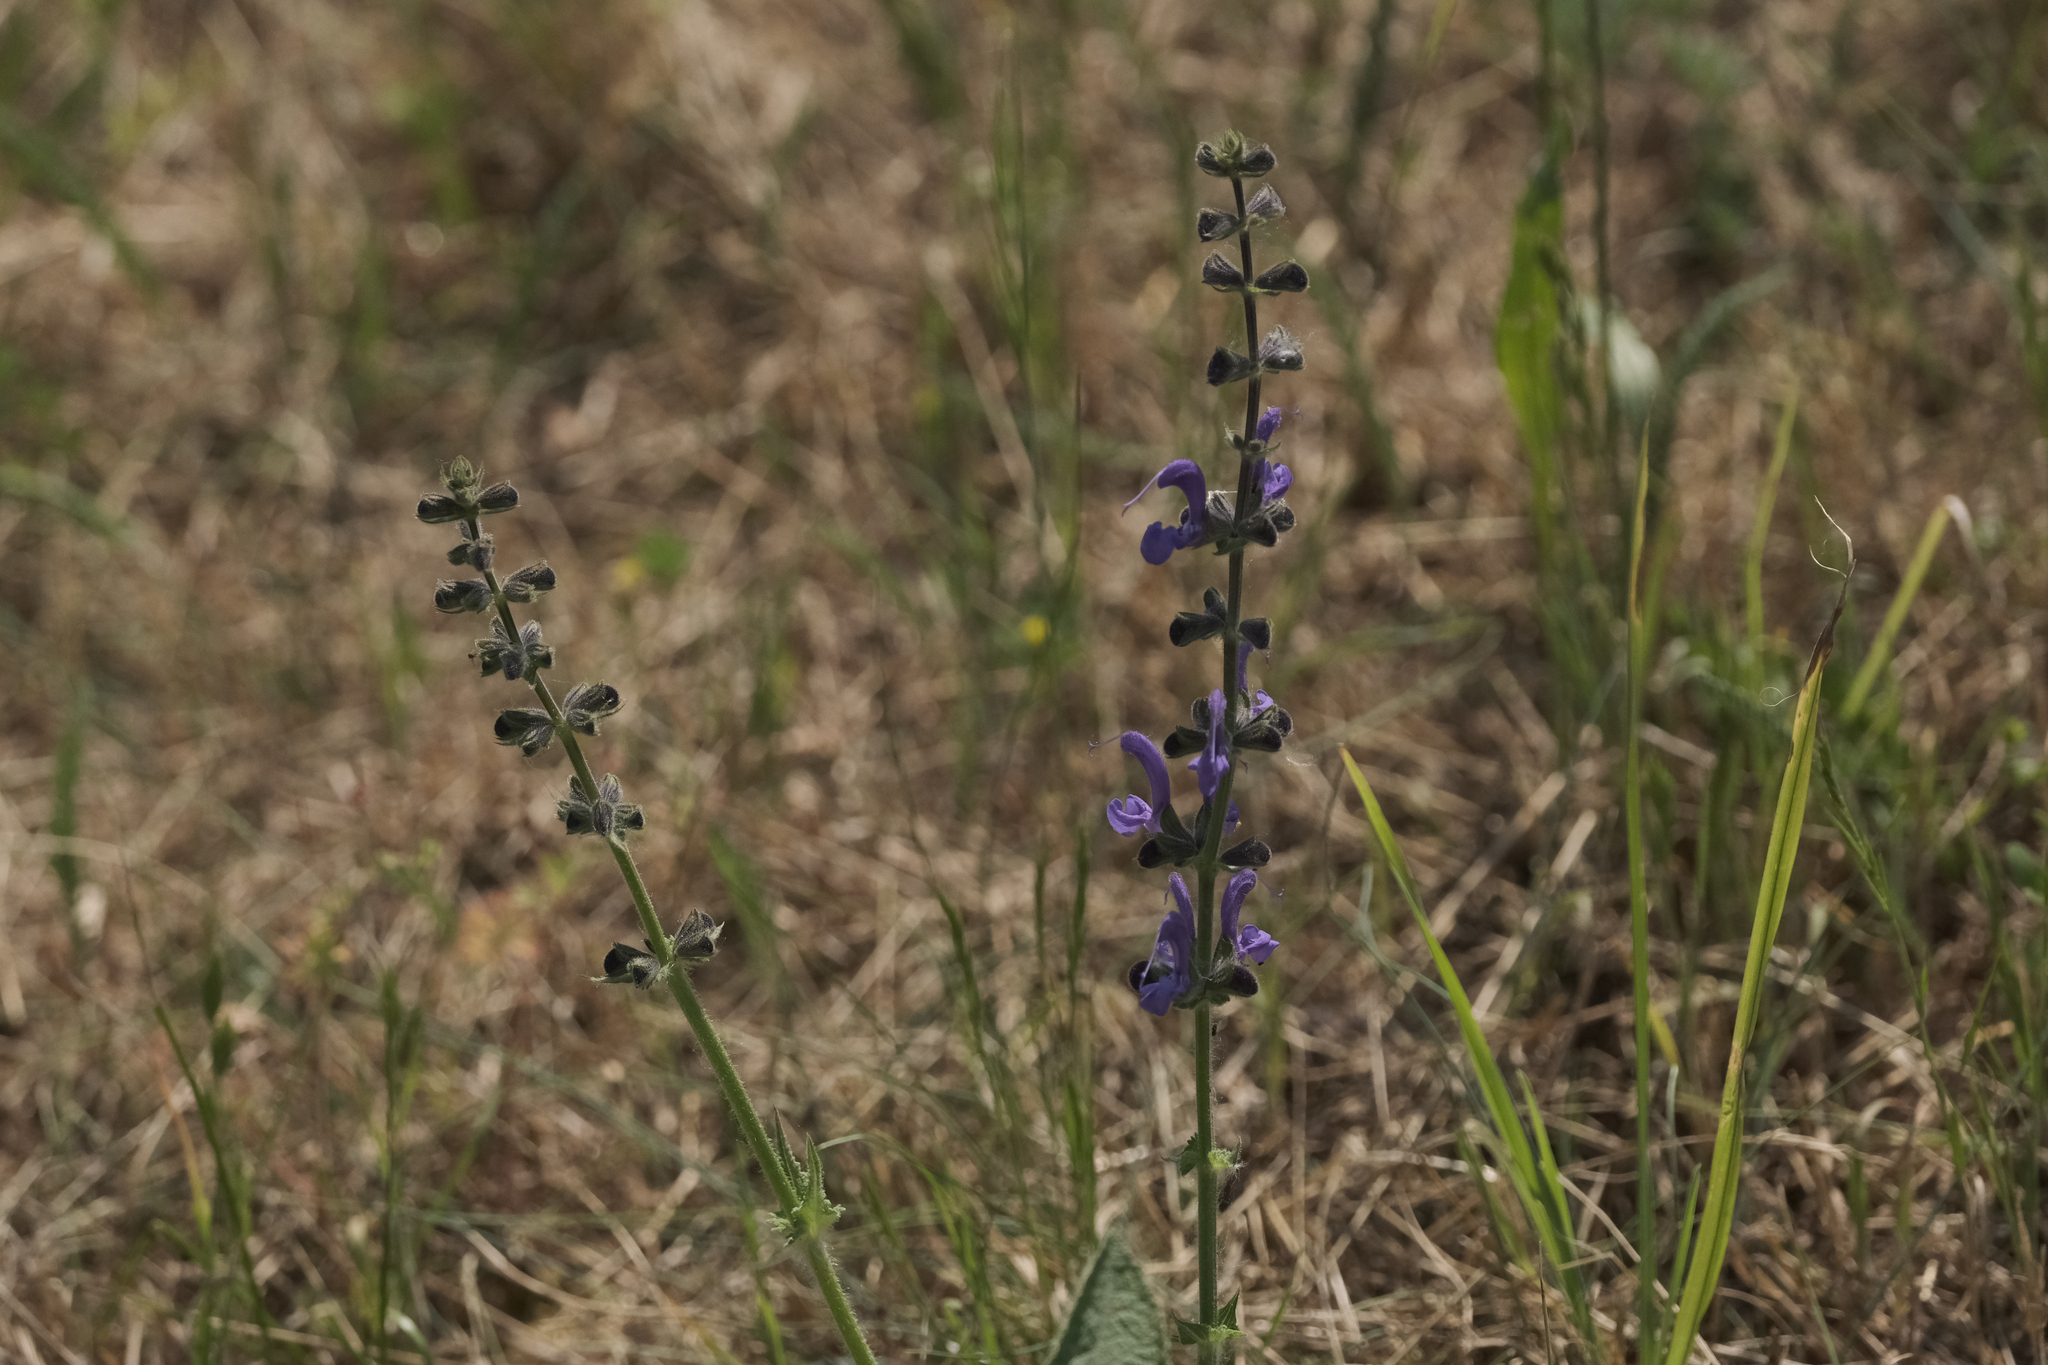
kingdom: Plantae
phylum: Tracheophyta
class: Magnoliopsida
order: Lamiales
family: Lamiaceae
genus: Salvia
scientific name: Salvia pratensis
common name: Meadow sage
